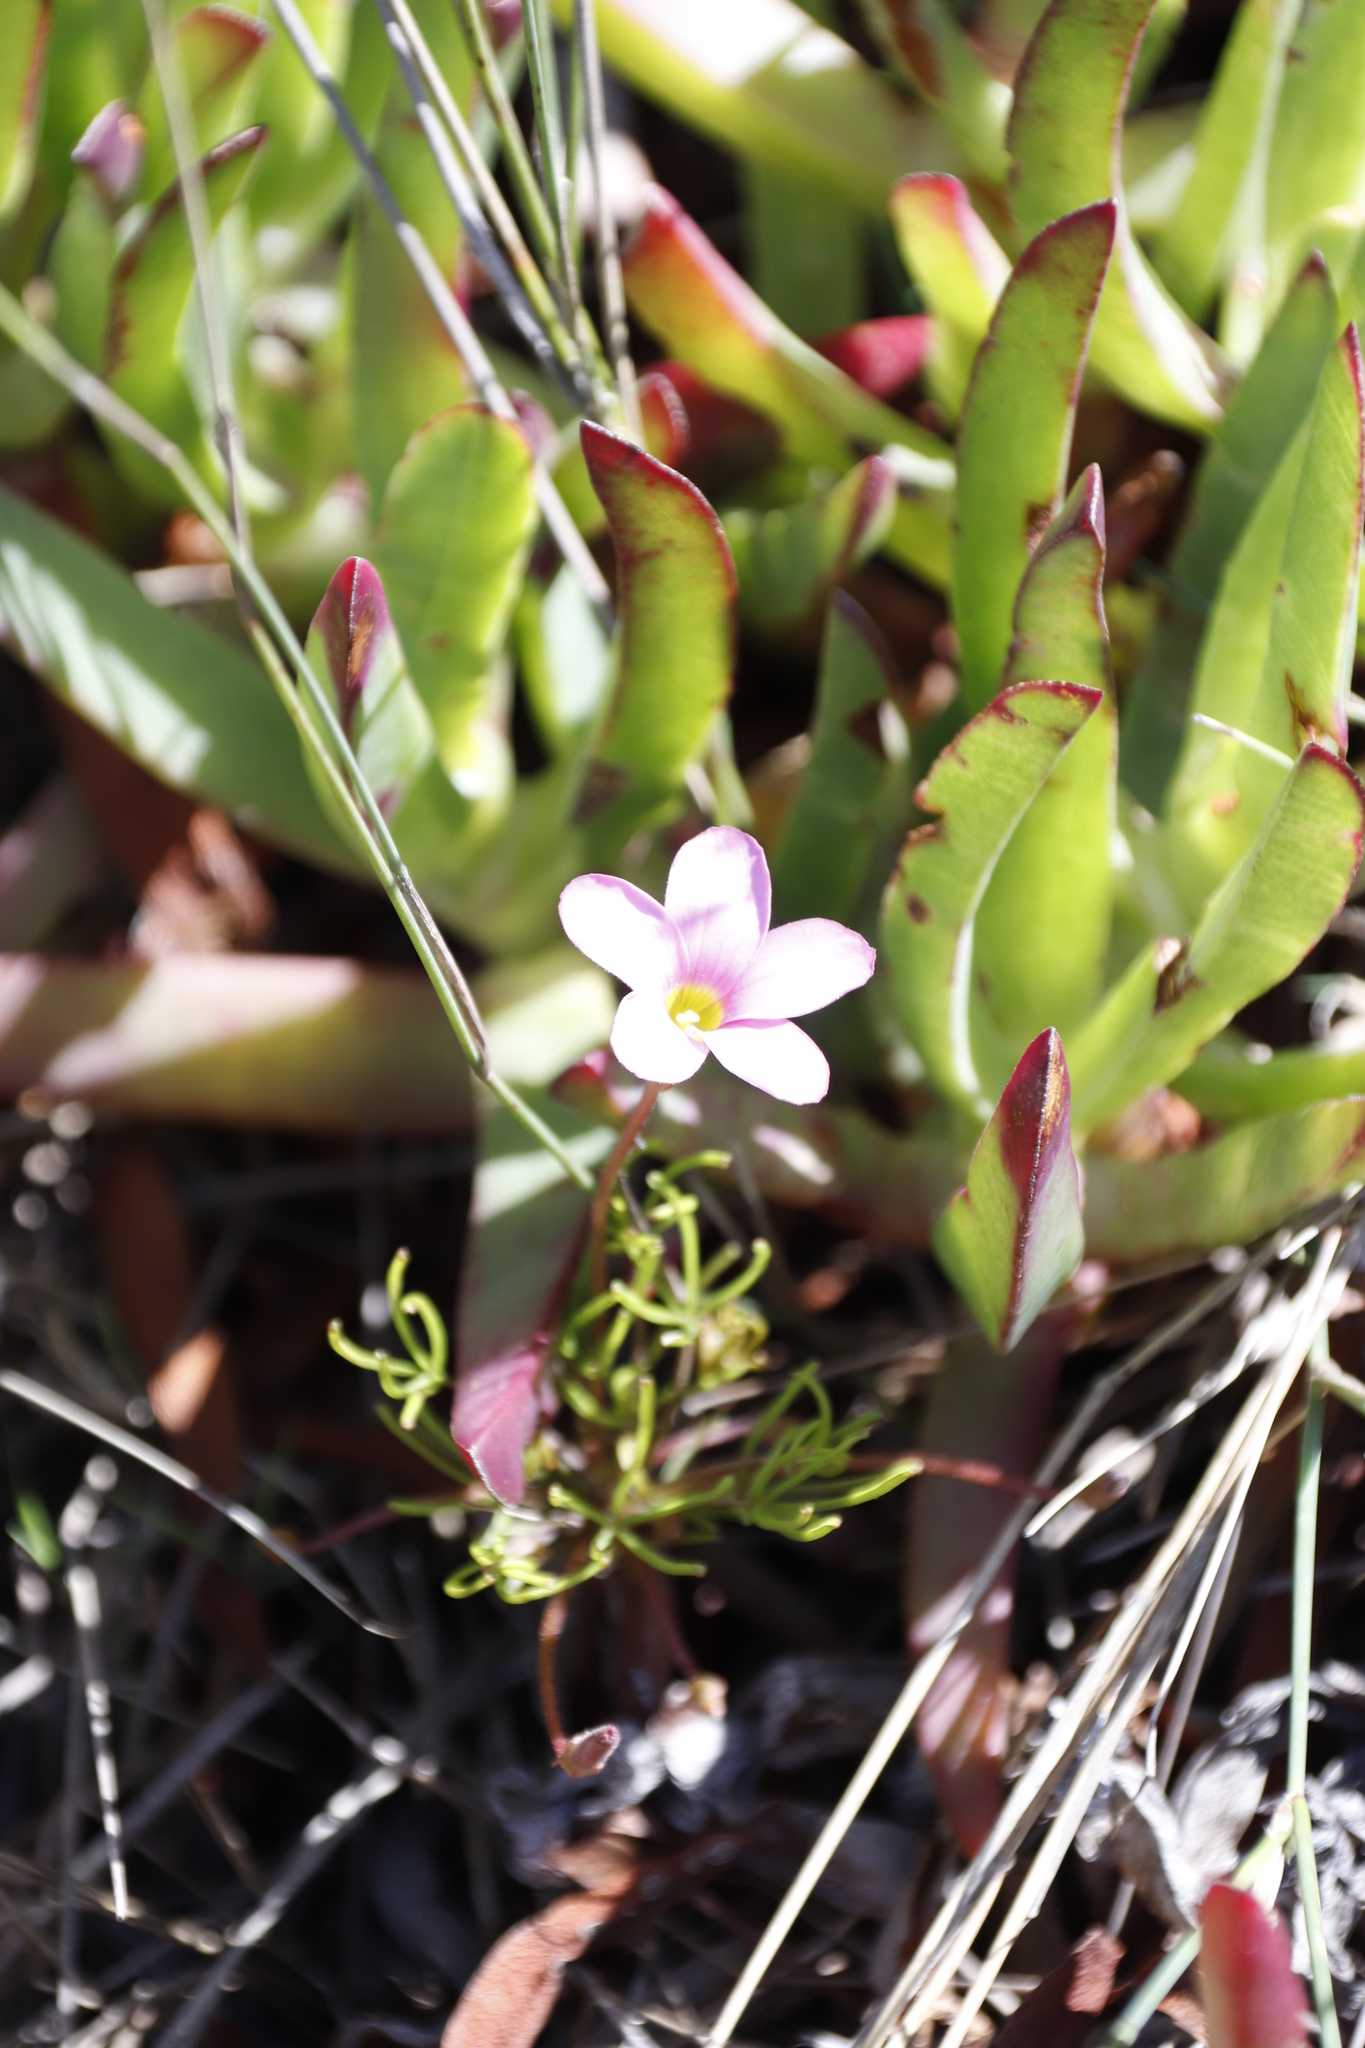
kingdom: Plantae
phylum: Tracheophyta
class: Magnoliopsida
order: Oxalidales
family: Oxalidaceae
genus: Oxalis
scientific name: Oxalis polyphylla
